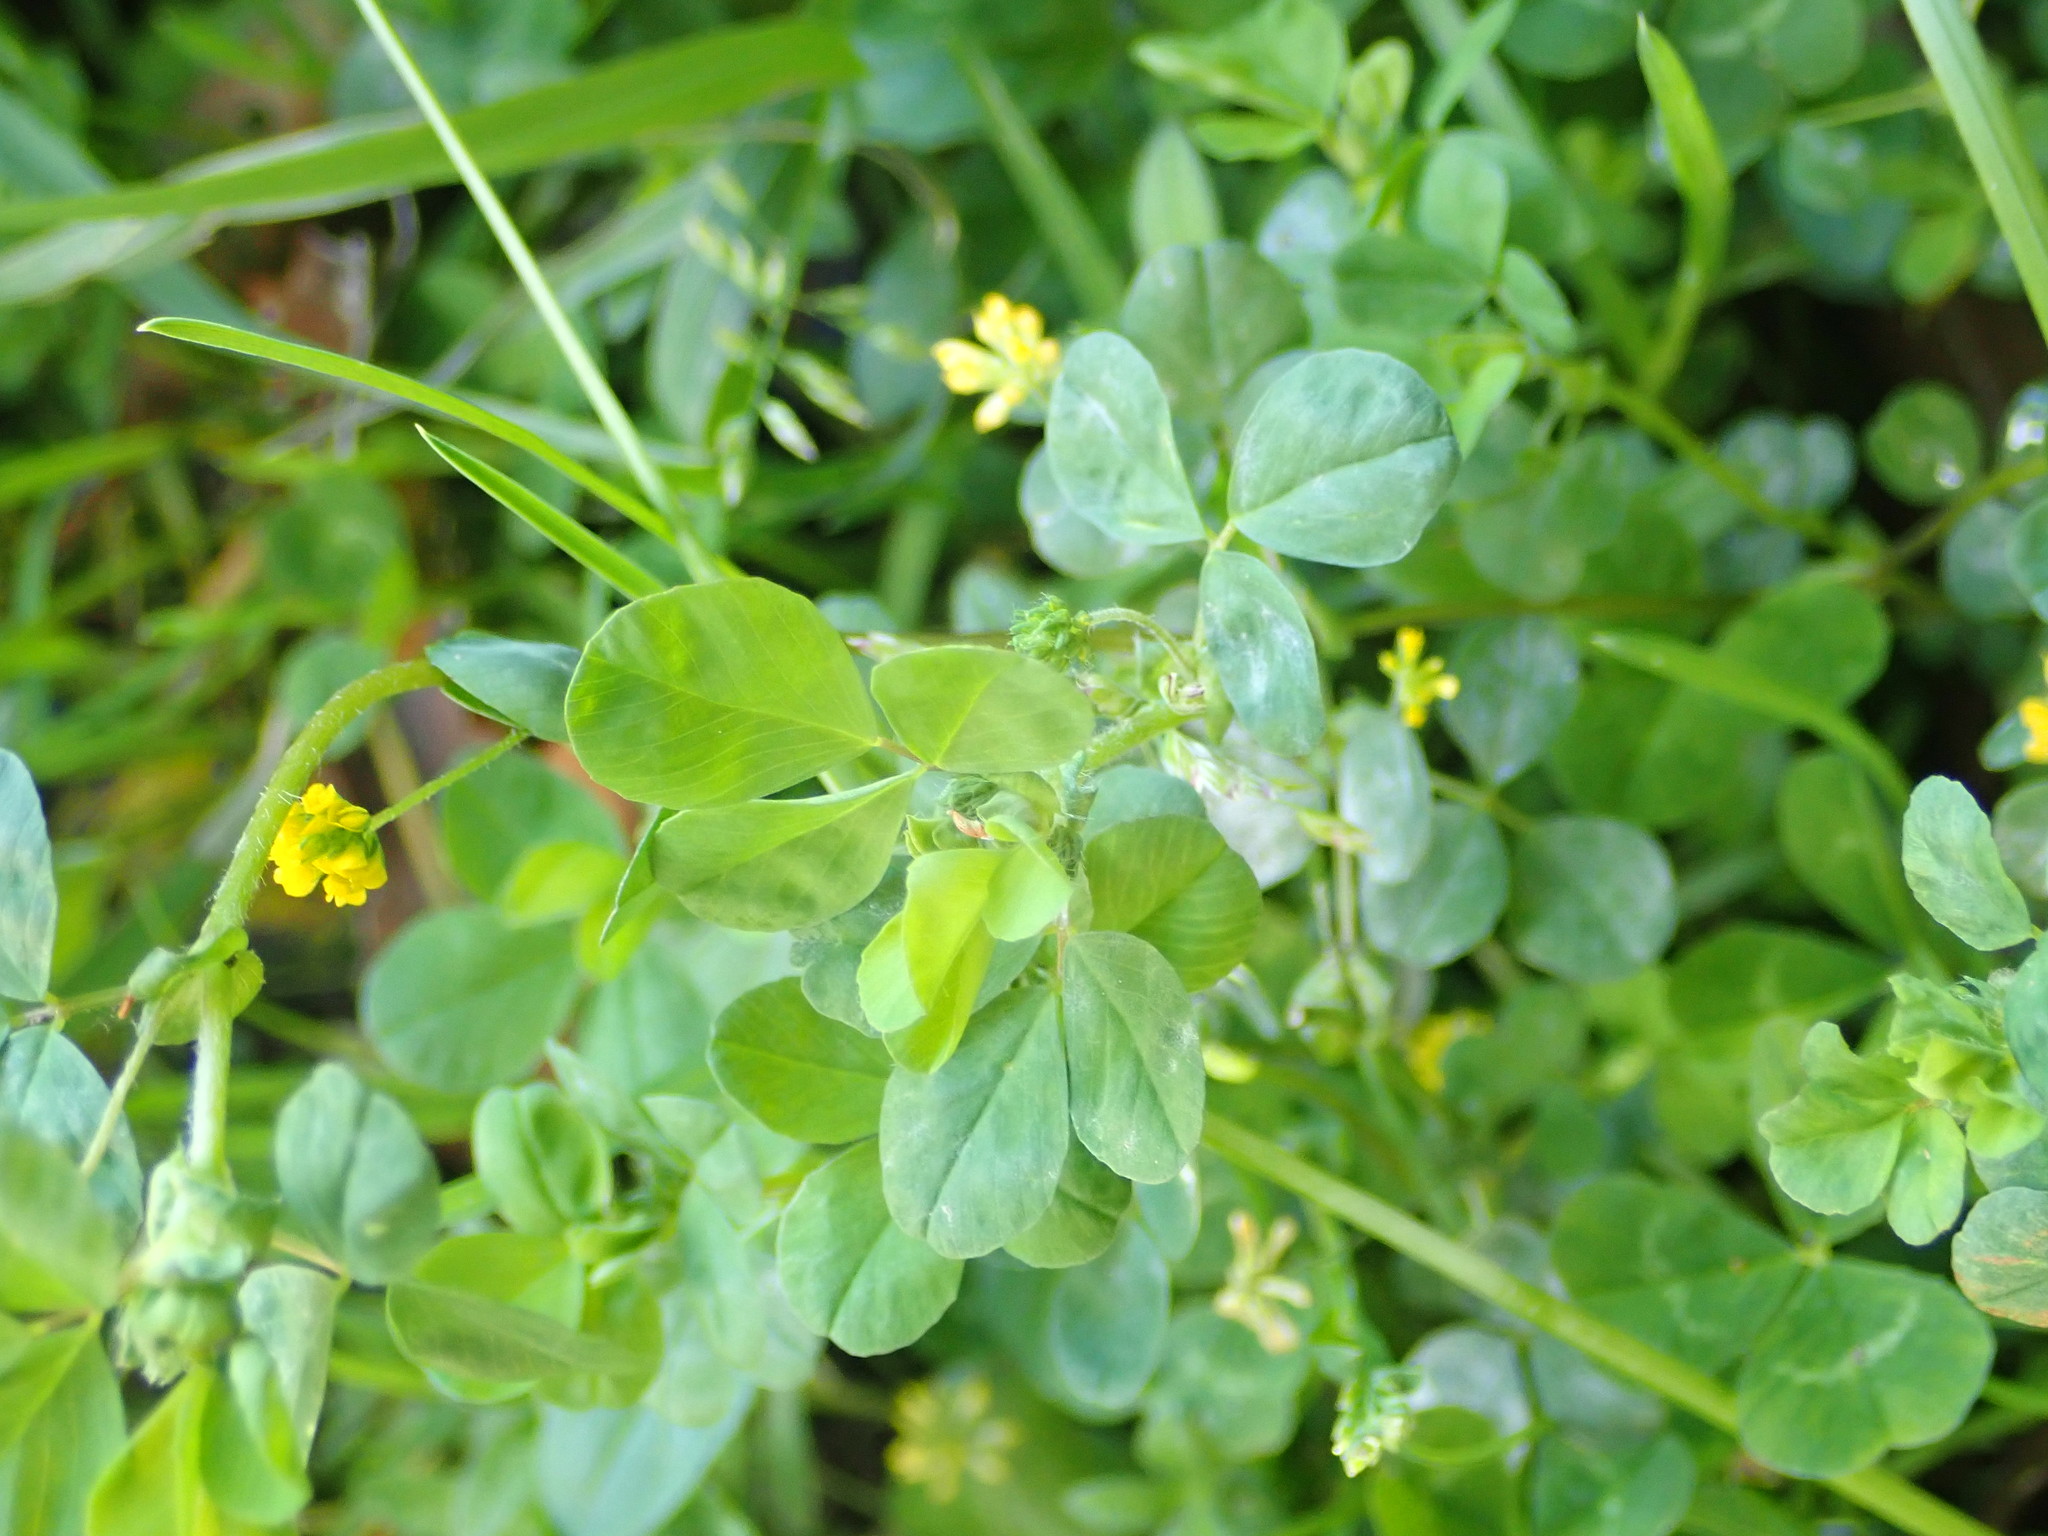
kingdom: Plantae
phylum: Tracheophyta
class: Magnoliopsida
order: Fabales
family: Fabaceae
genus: Trifolium
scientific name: Trifolium dubium
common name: Suckling clover
